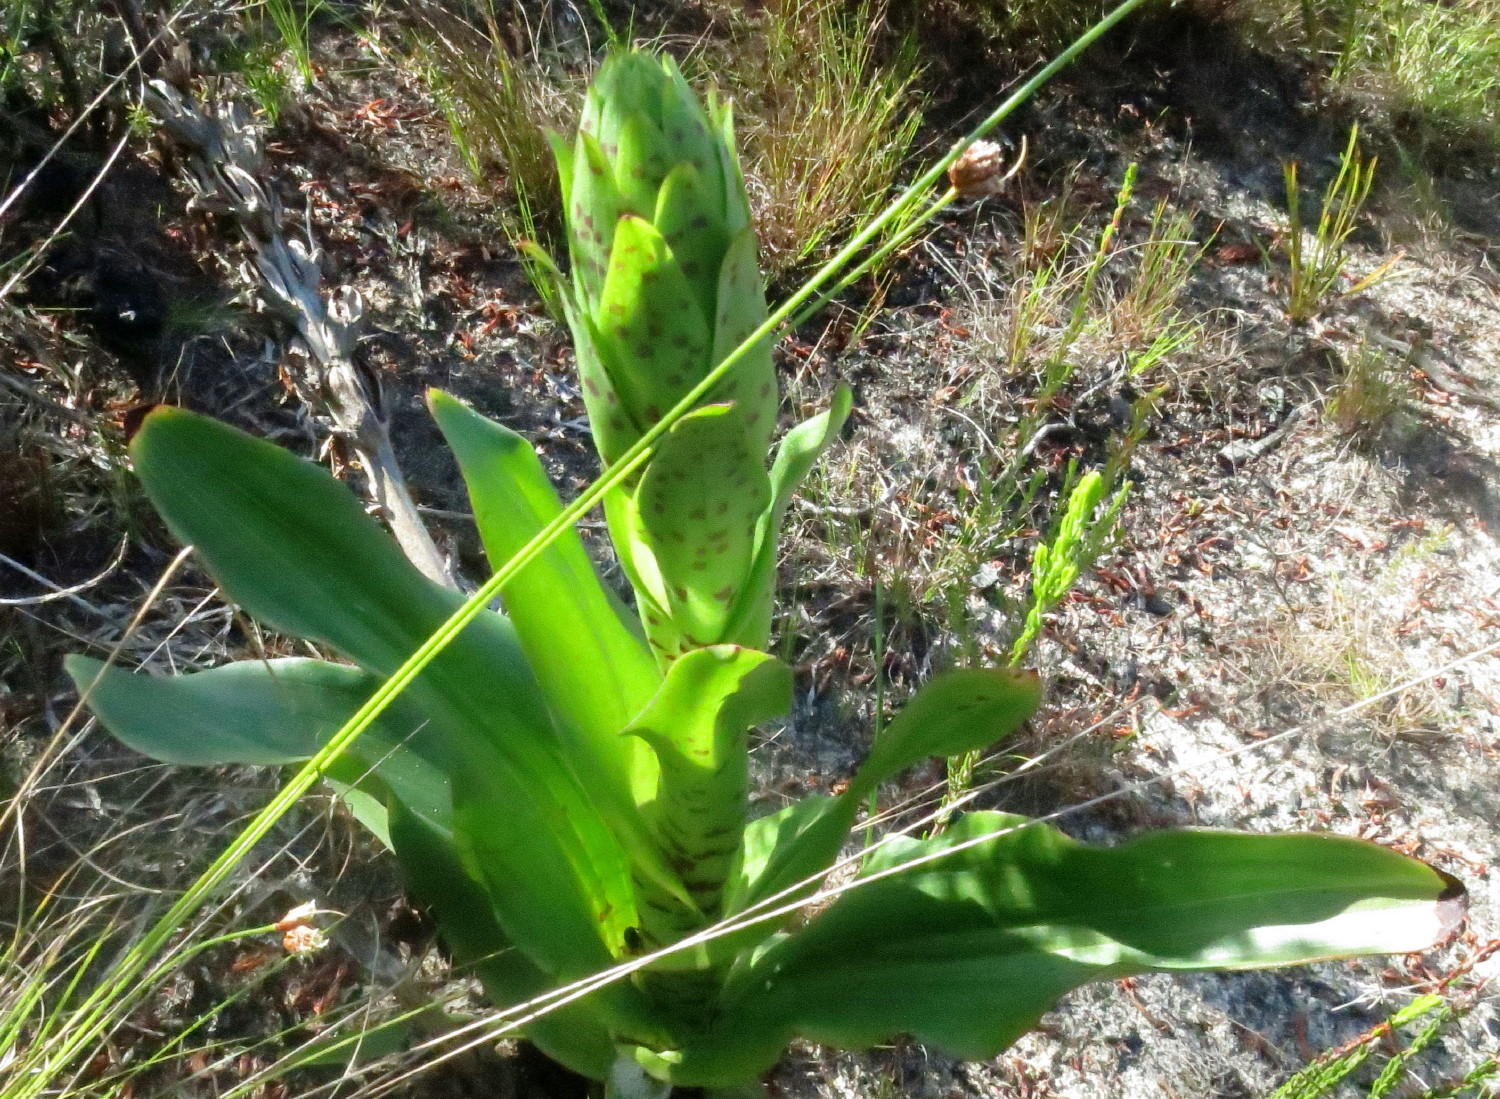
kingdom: Plantae
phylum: Tracheophyta
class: Liliopsida
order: Asparagales
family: Orchidaceae
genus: Disa
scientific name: Disa hallackii
